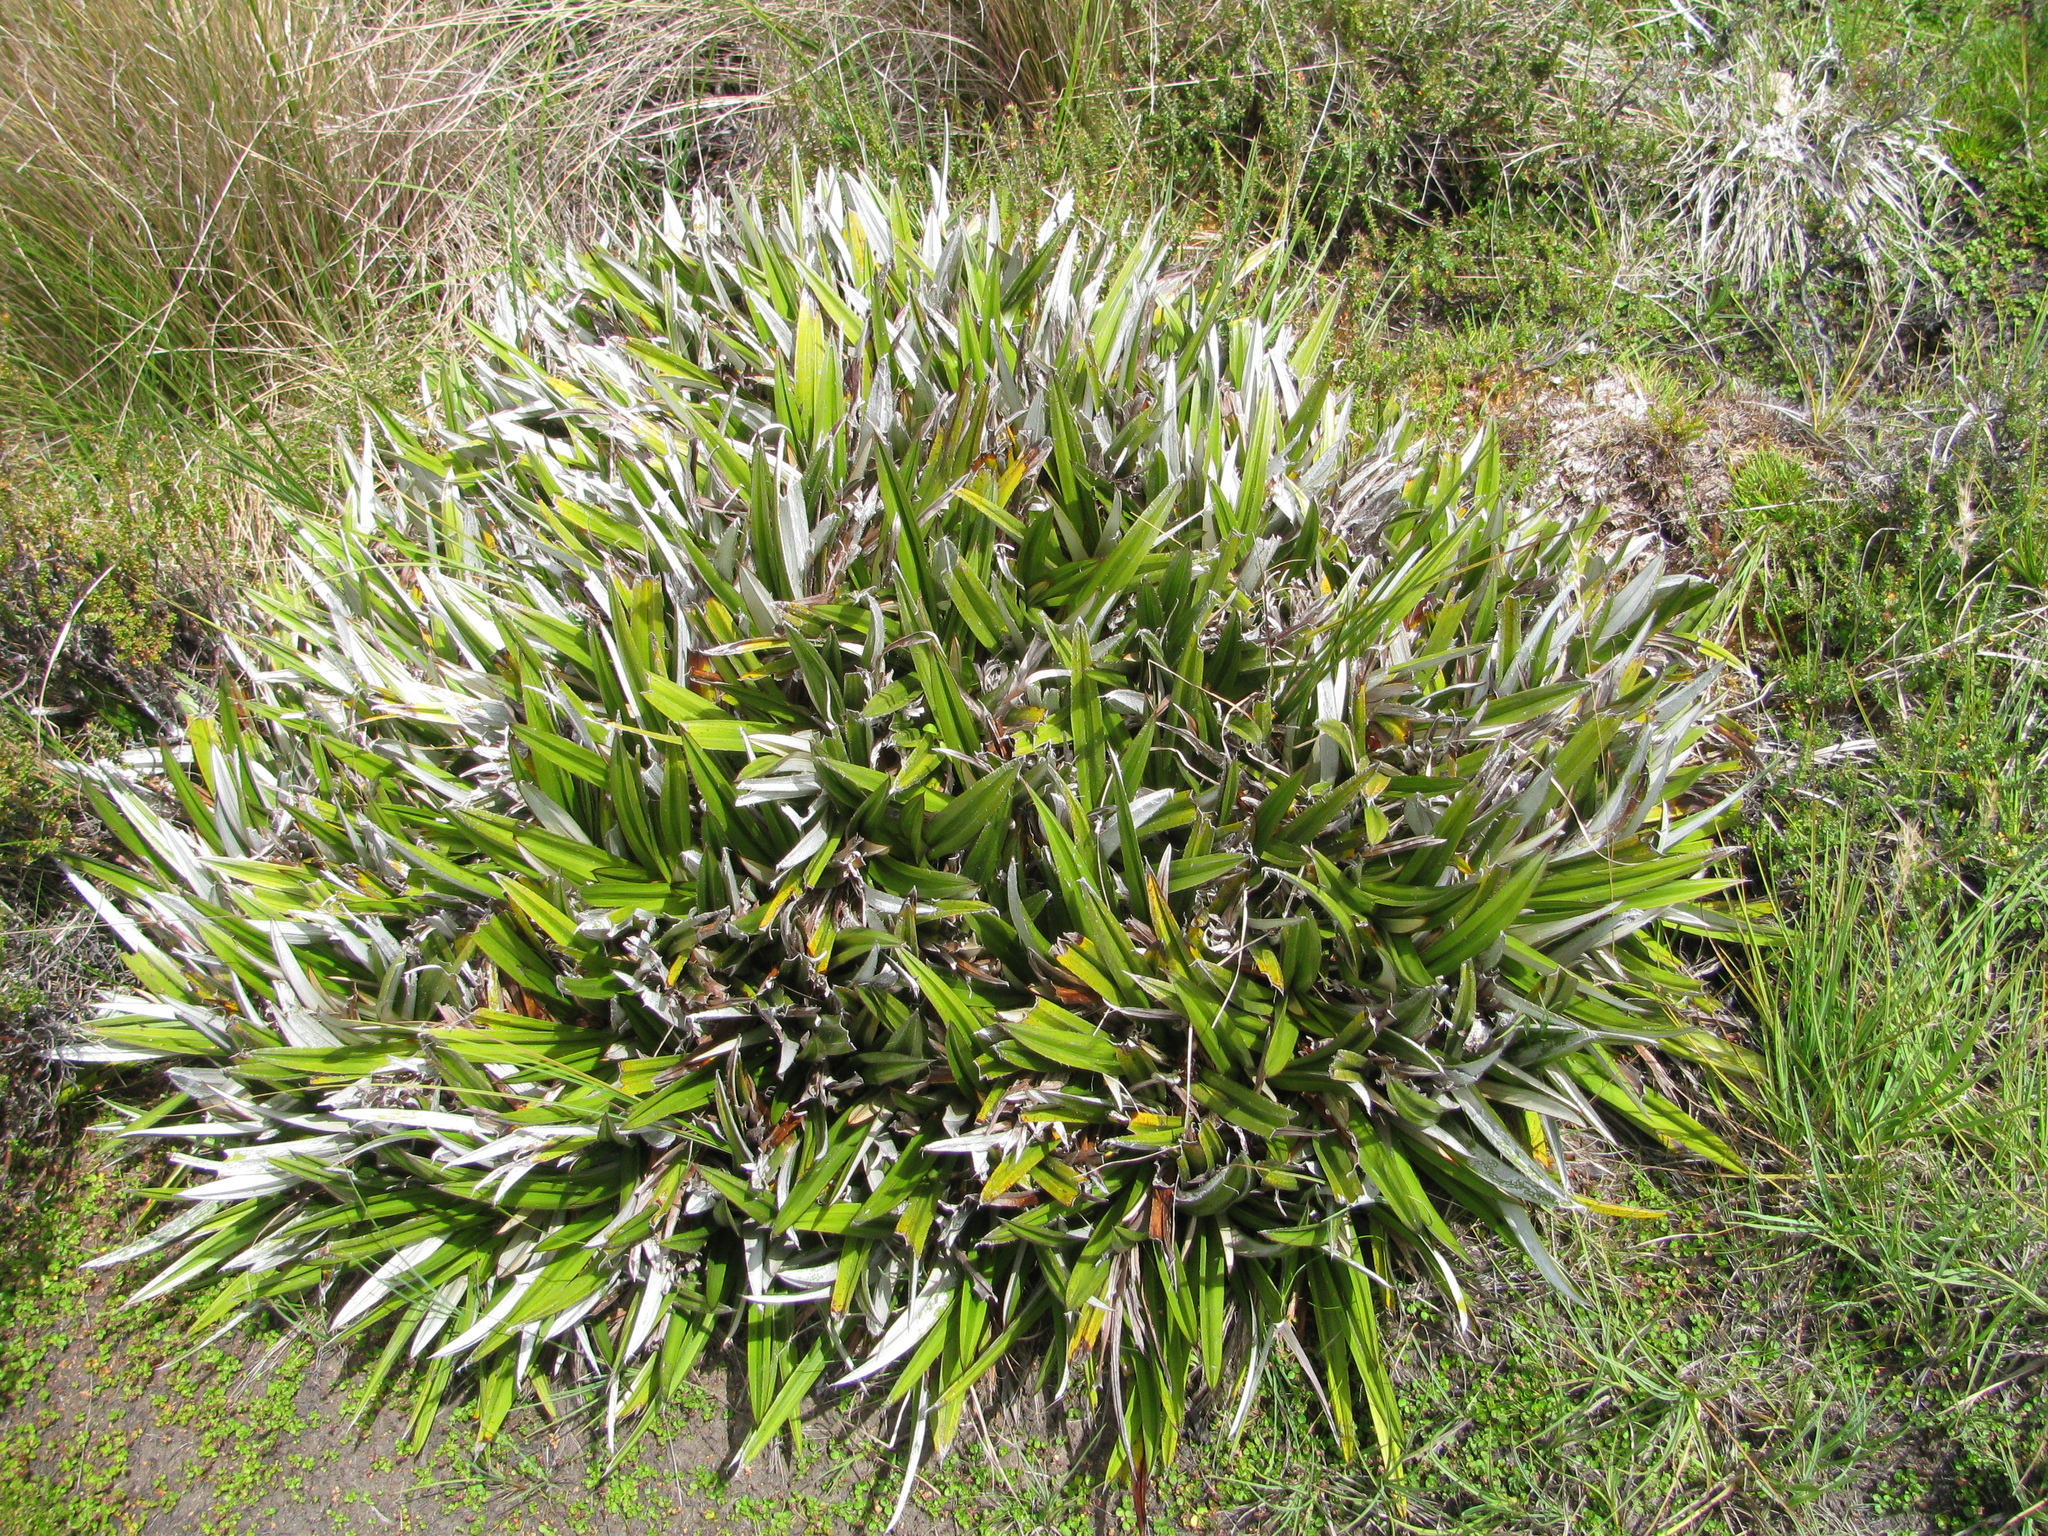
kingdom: Plantae
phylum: Tracheophyta
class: Liliopsida
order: Asparagales
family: Asteliaceae
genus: Astelia
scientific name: Astelia alpina
